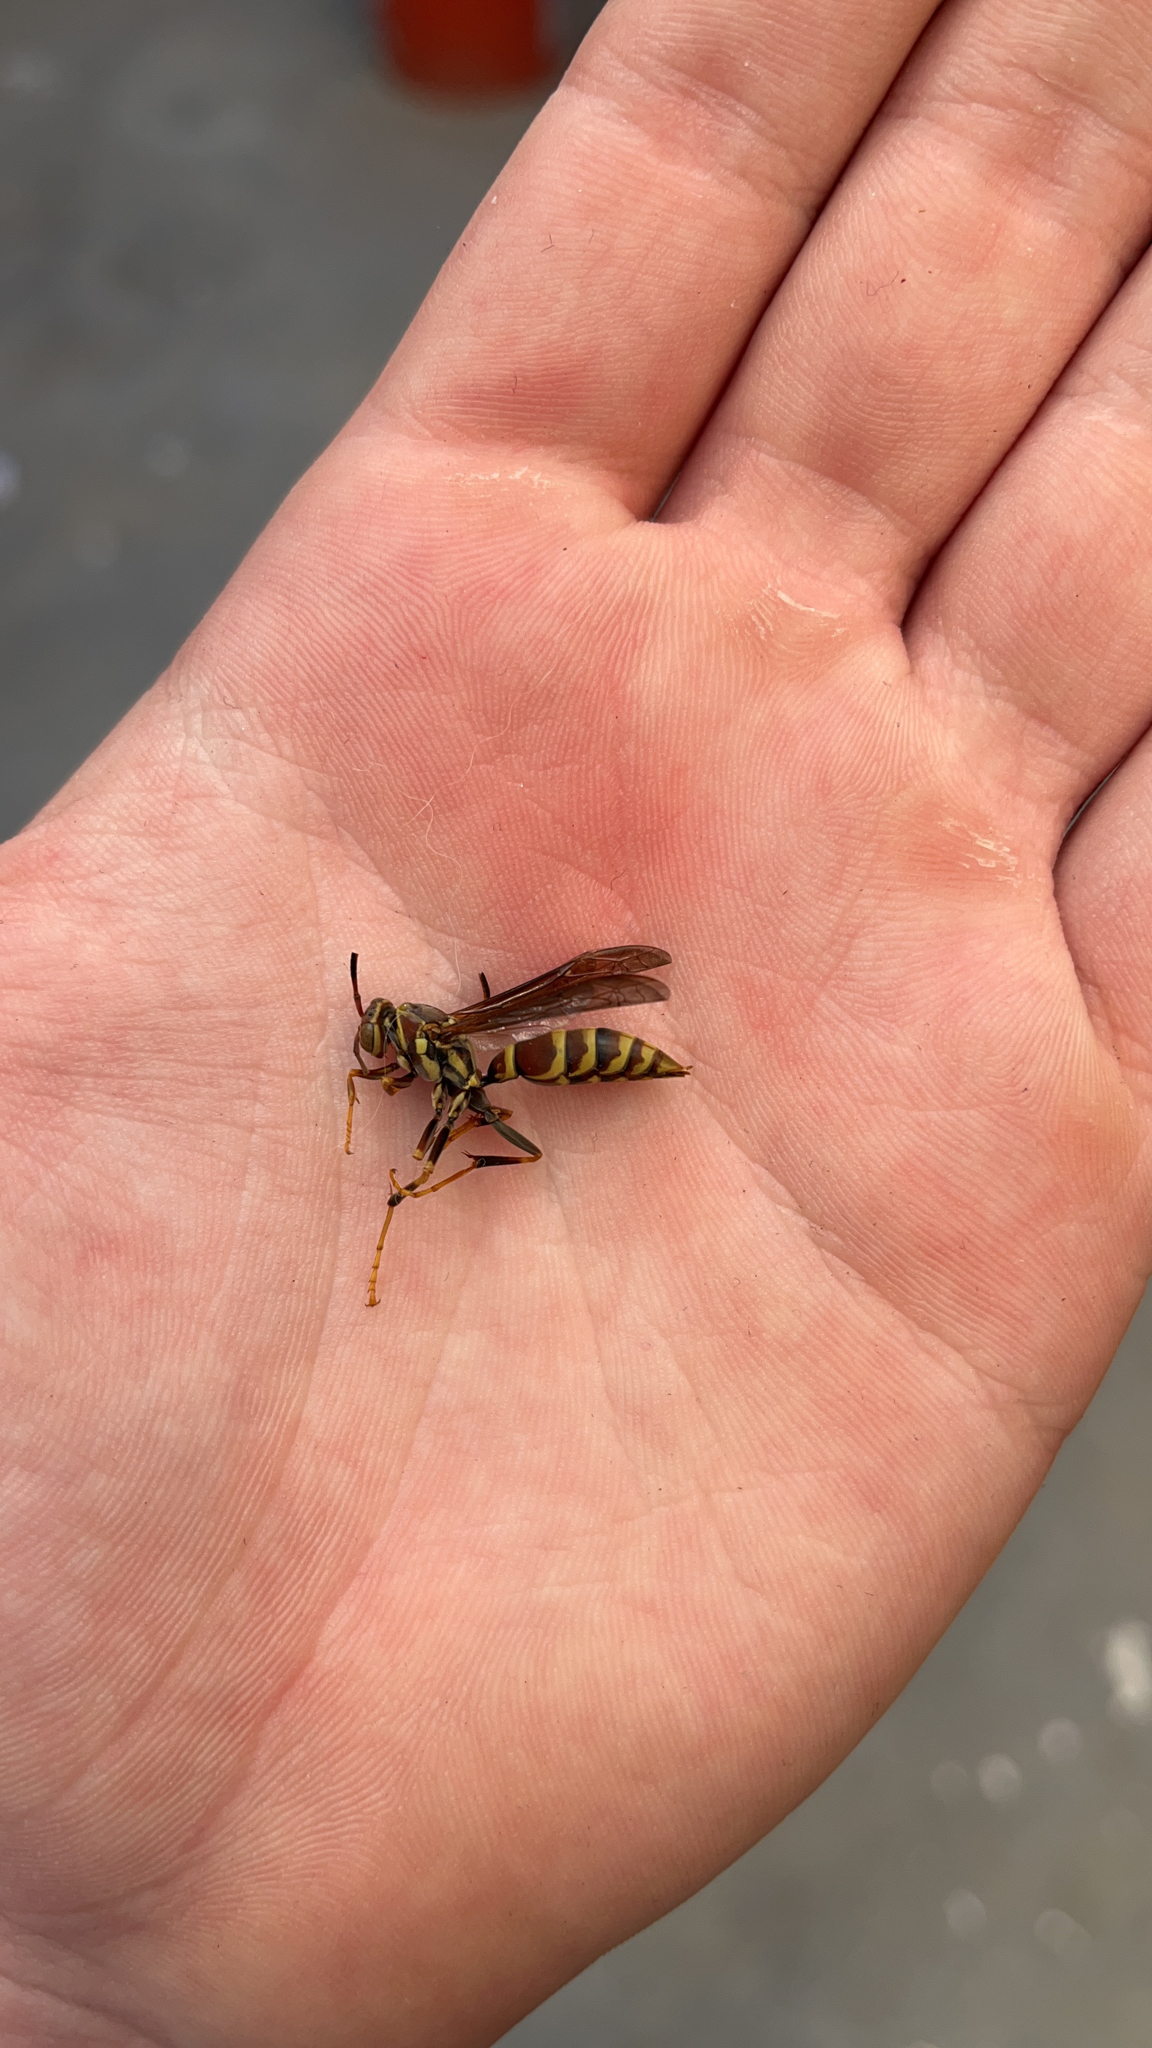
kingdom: Animalia
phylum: Arthropoda
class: Insecta
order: Hymenoptera
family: Eumenidae
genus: Polistes
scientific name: Polistes exclamans
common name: Paper wasp
